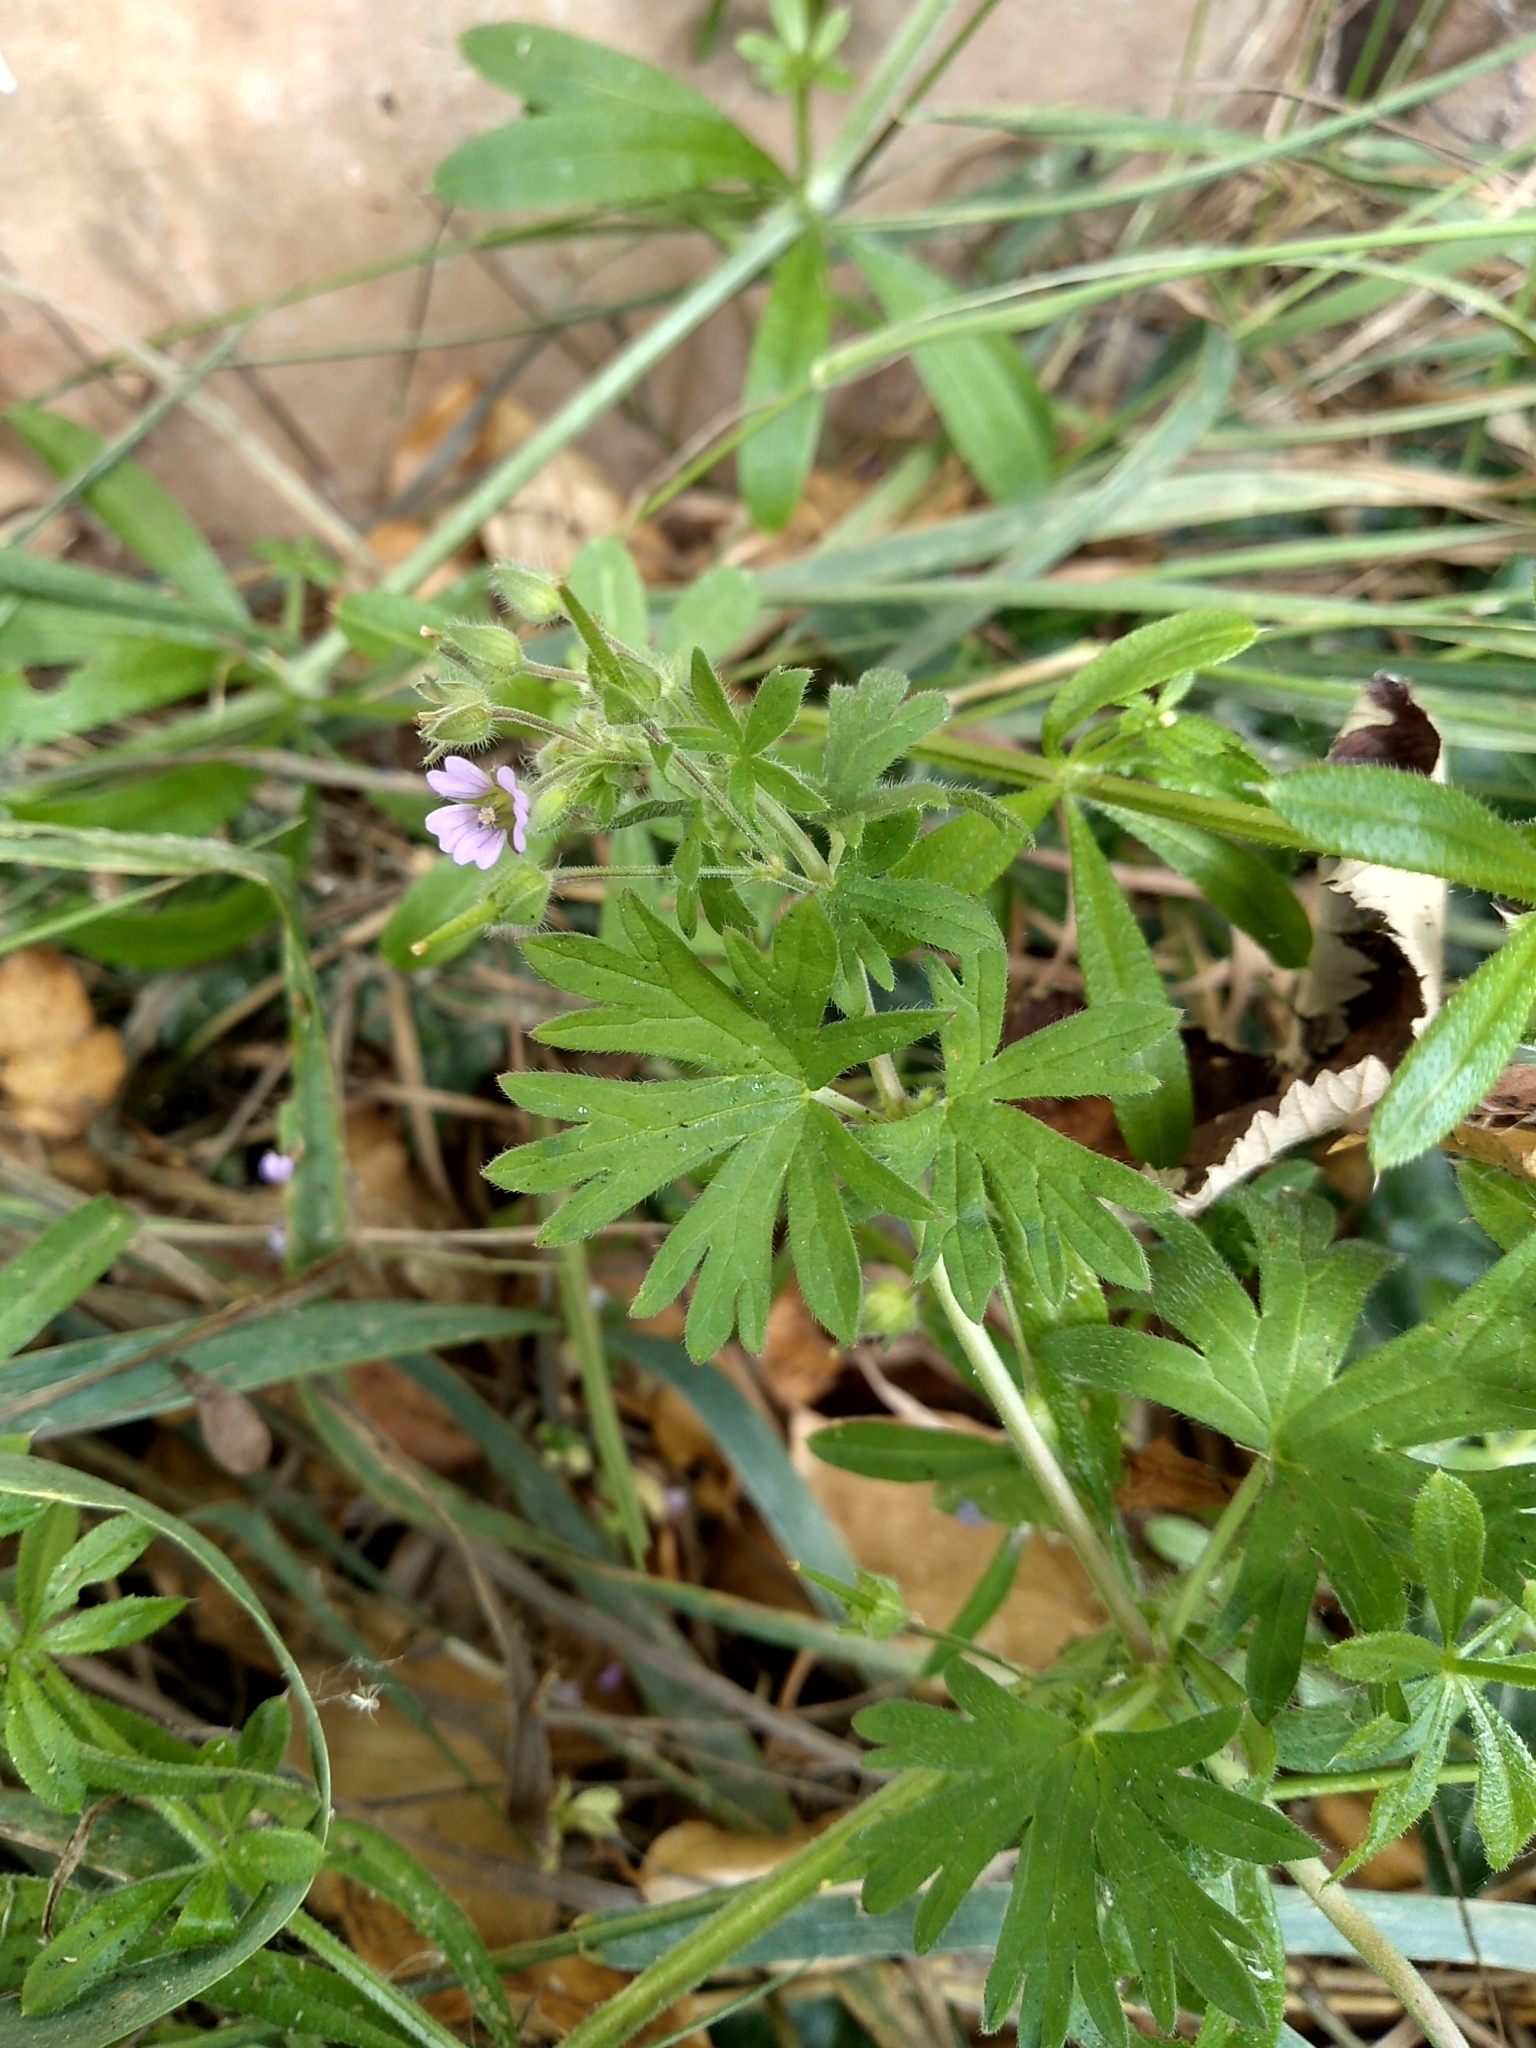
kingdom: Plantae
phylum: Tracheophyta
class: Magnoliopsida
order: Geraniales
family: Geraniaceae
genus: Geranium
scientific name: Geranium pusillum
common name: Small geranium
